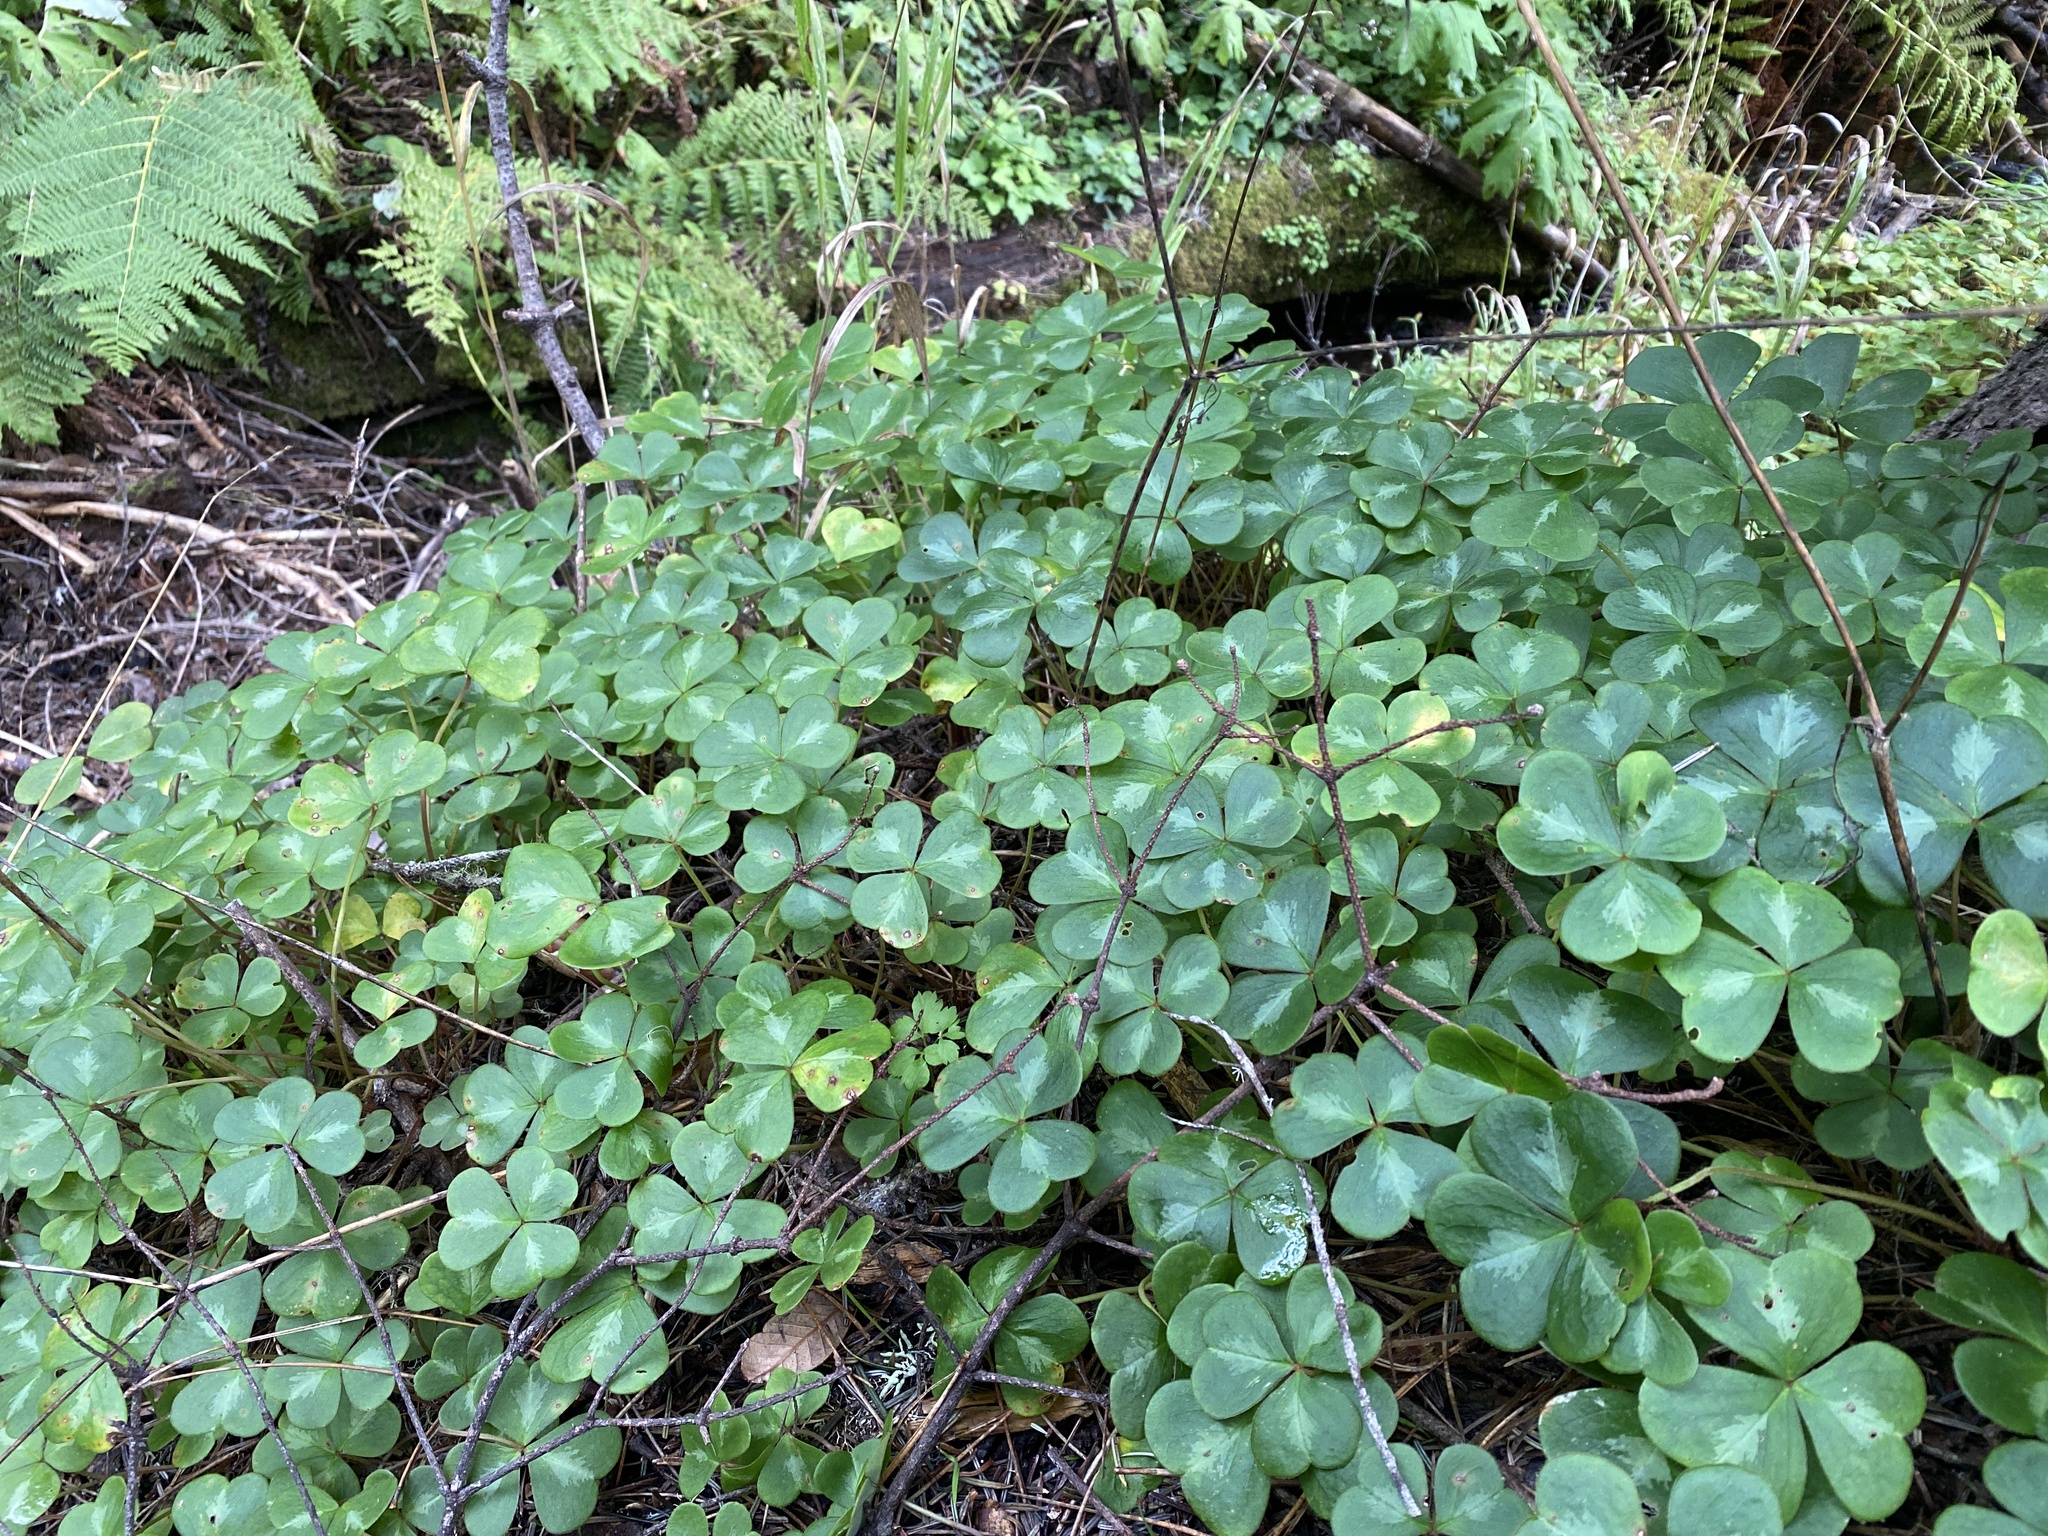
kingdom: Plantae
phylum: Tracheophyta
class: Magnoliopsida
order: Oxalidales
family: Oxalidaceae
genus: Oxalis
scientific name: Oxalis oregana
